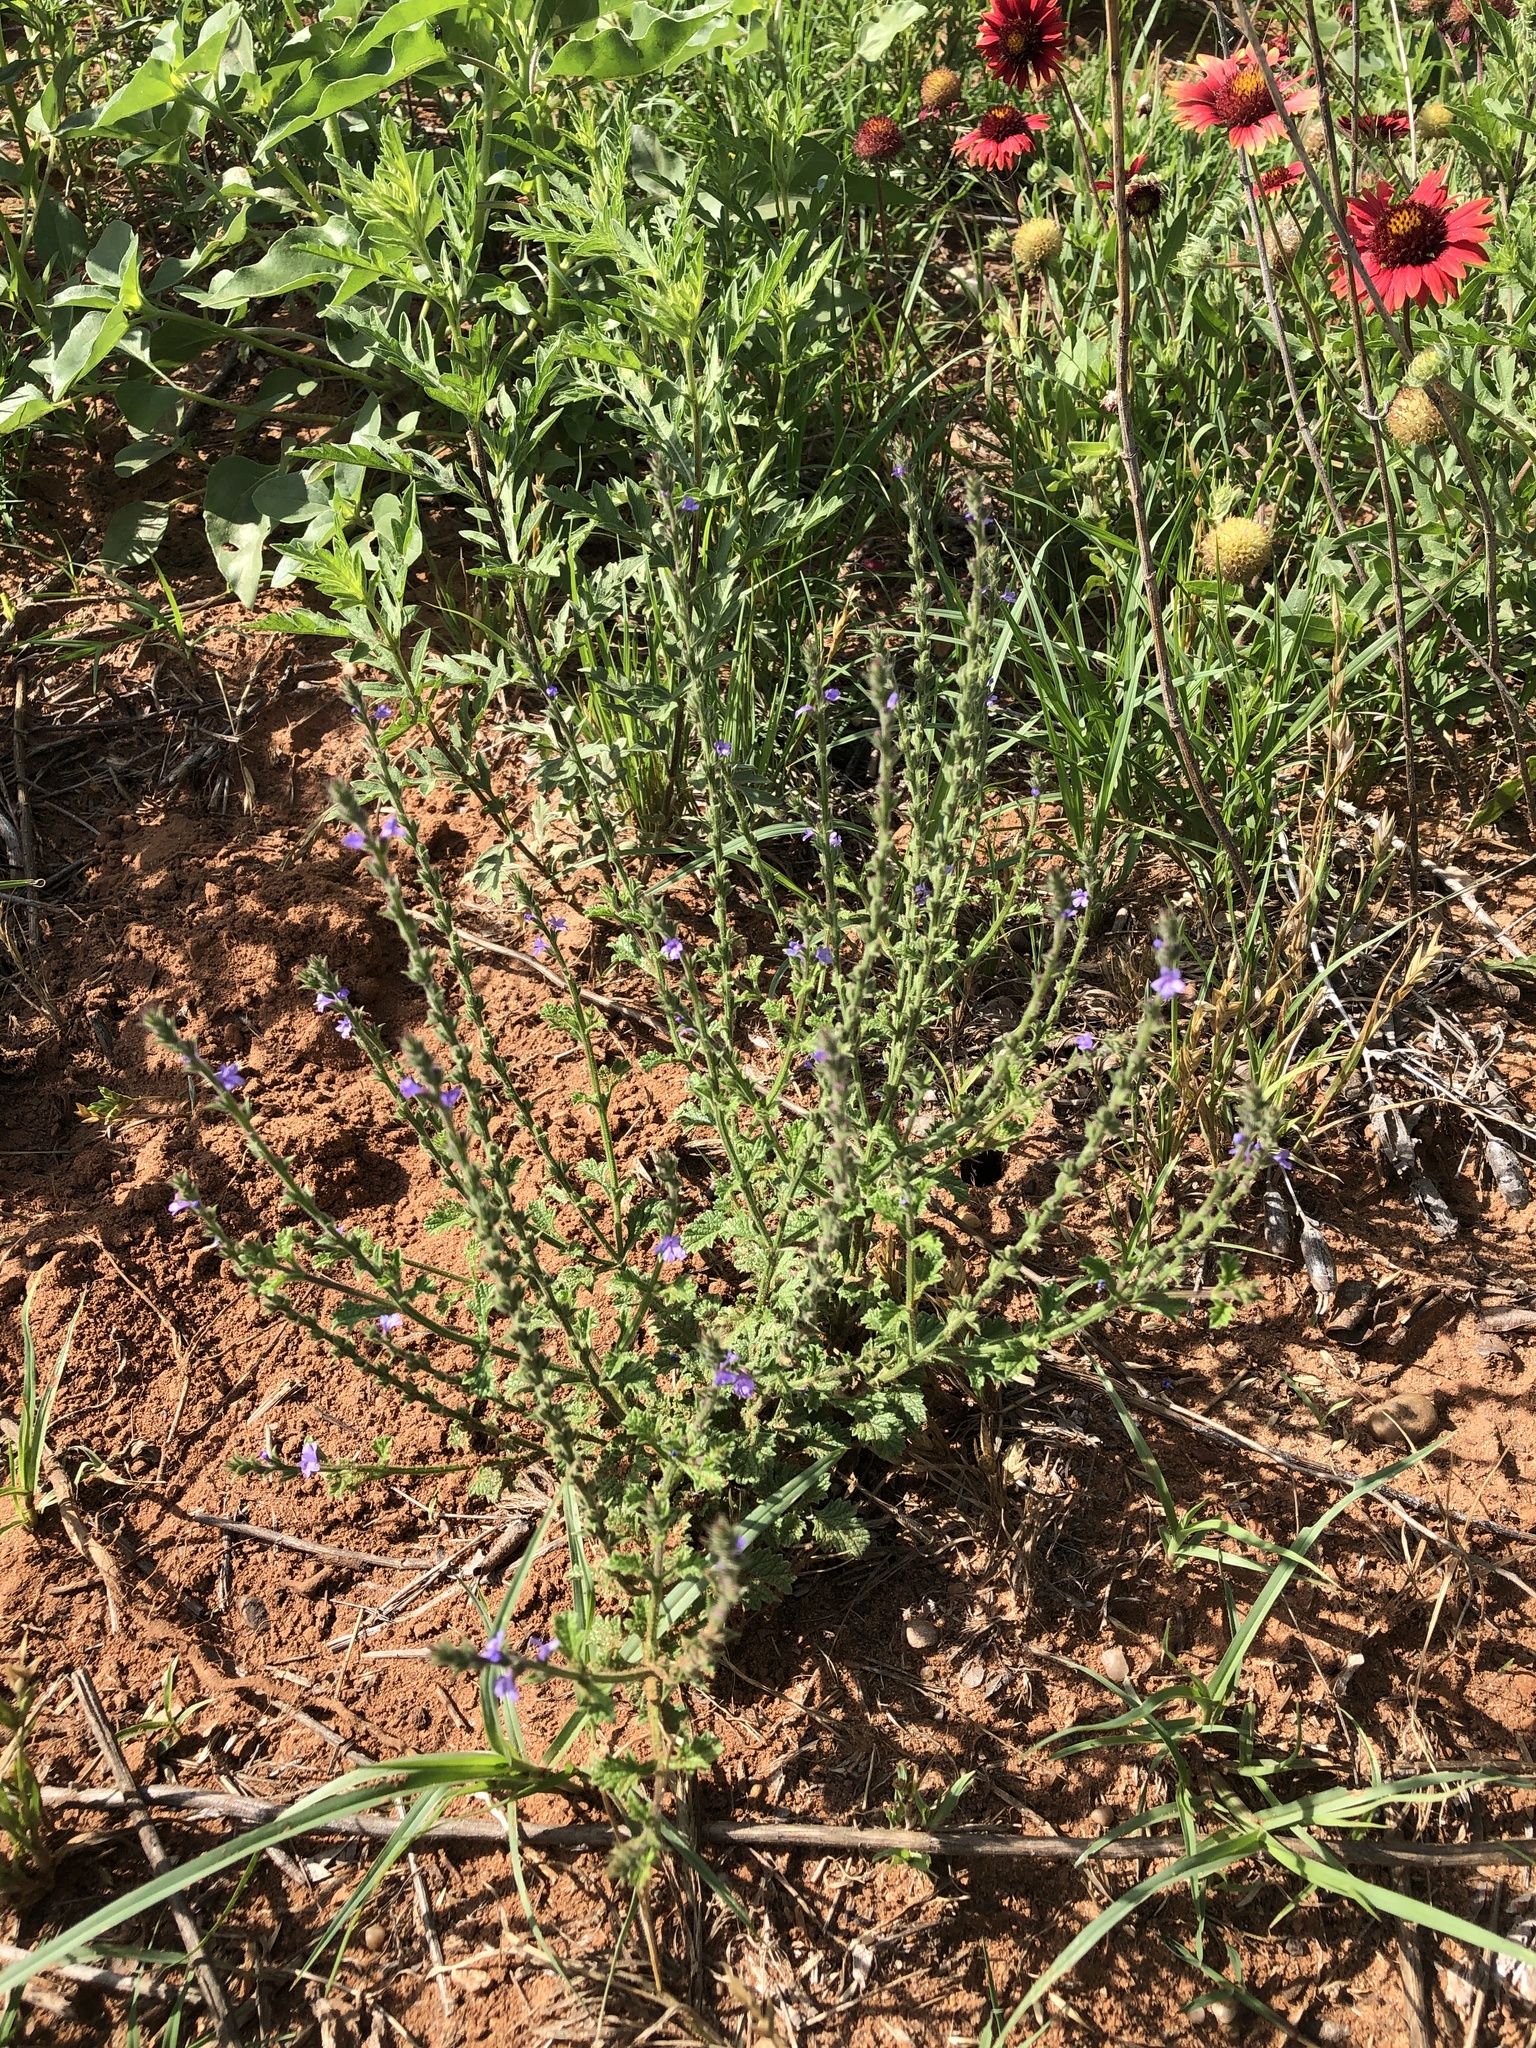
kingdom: Plantae
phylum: Tracheophyta
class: Magnoliopsida
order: Lamiales
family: Verbenaceae
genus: Verbena
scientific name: Verbena plicata
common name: Fan-leaf vervain
